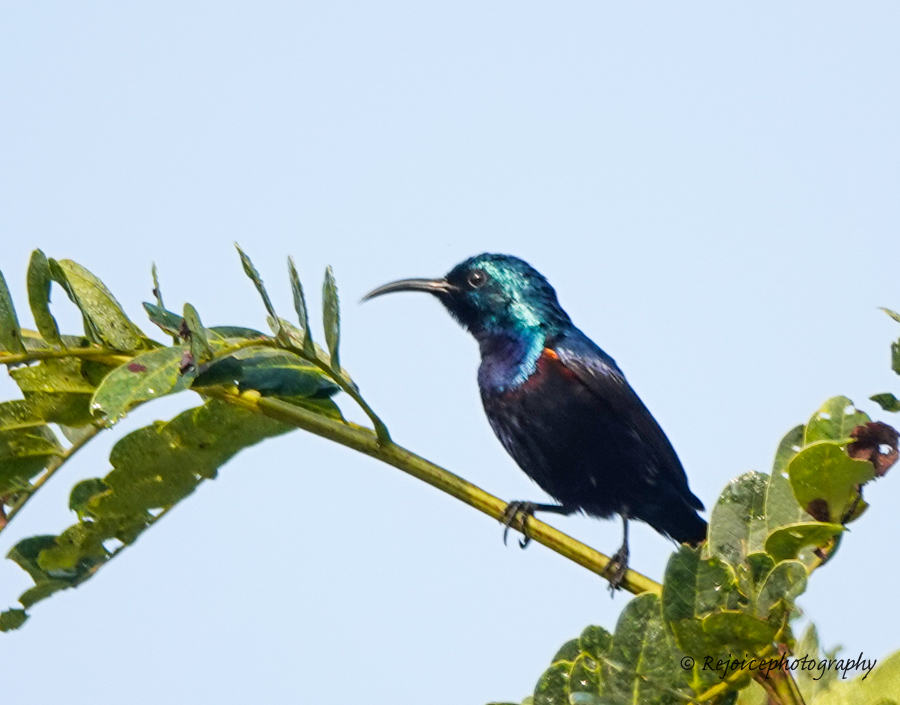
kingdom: Animalia
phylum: Chordata
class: Aves
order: Passeriformes
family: Nectariniidae
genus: Cinnyris
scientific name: Cinnyris asiaticus
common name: Purple sunbird
